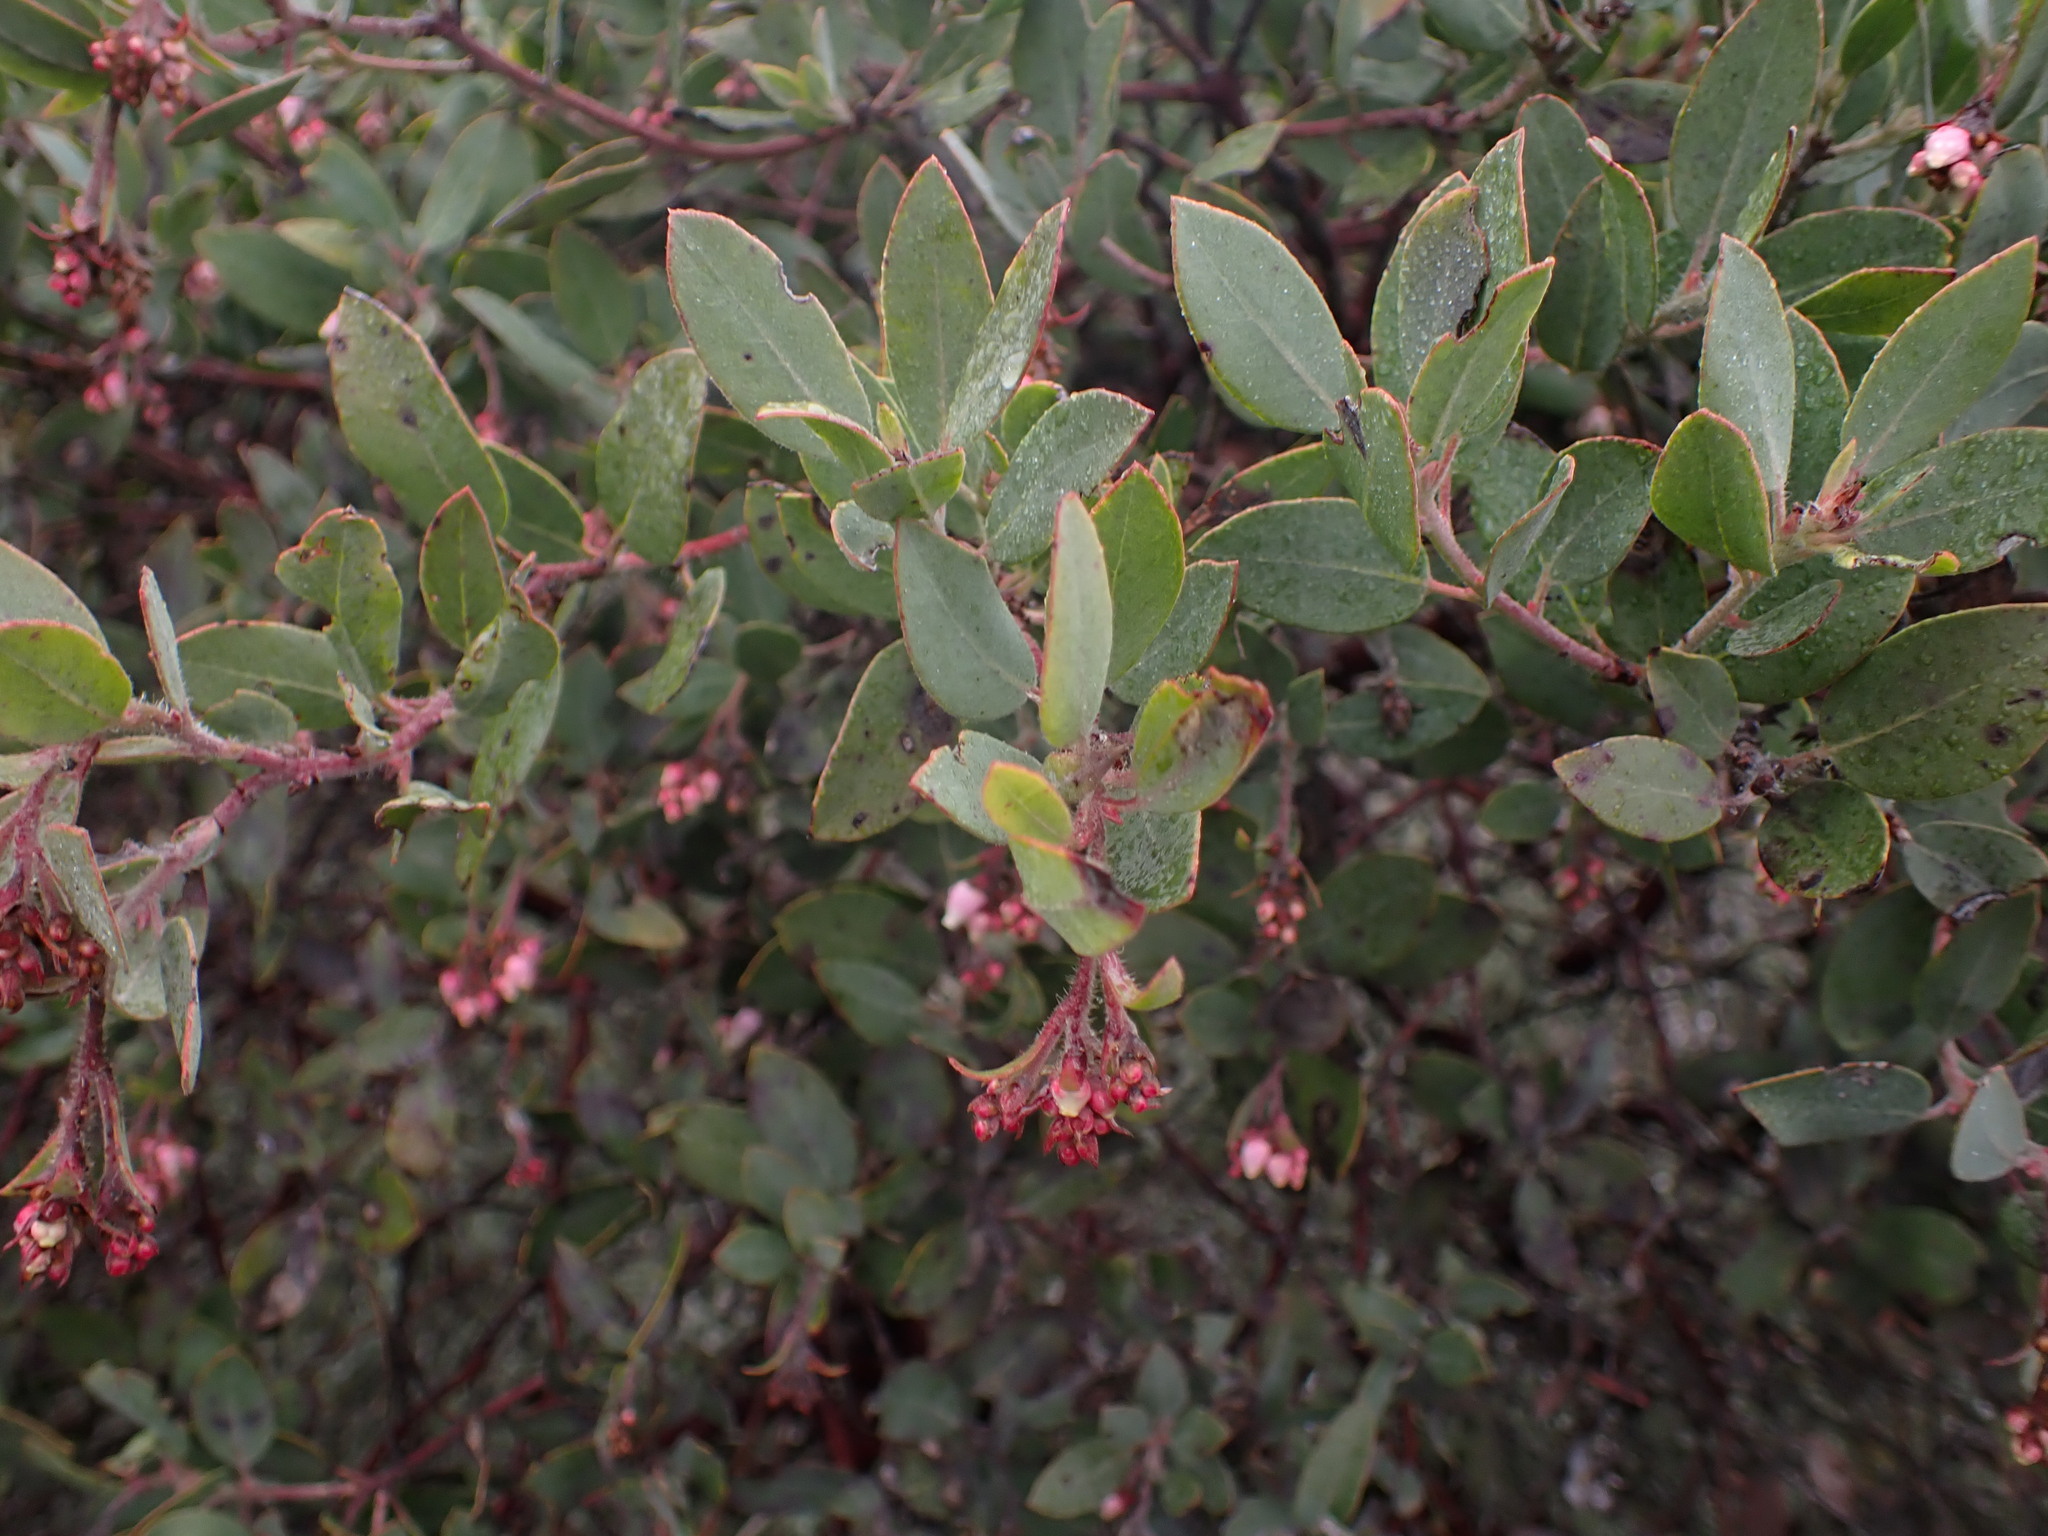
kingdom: Plantae
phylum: Tracheophyta
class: Magnoliopsida
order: Ericales
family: Ericaceae
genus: Arctostaphylos
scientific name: Arctostaphylos columbiana
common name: Bristly bearberry
